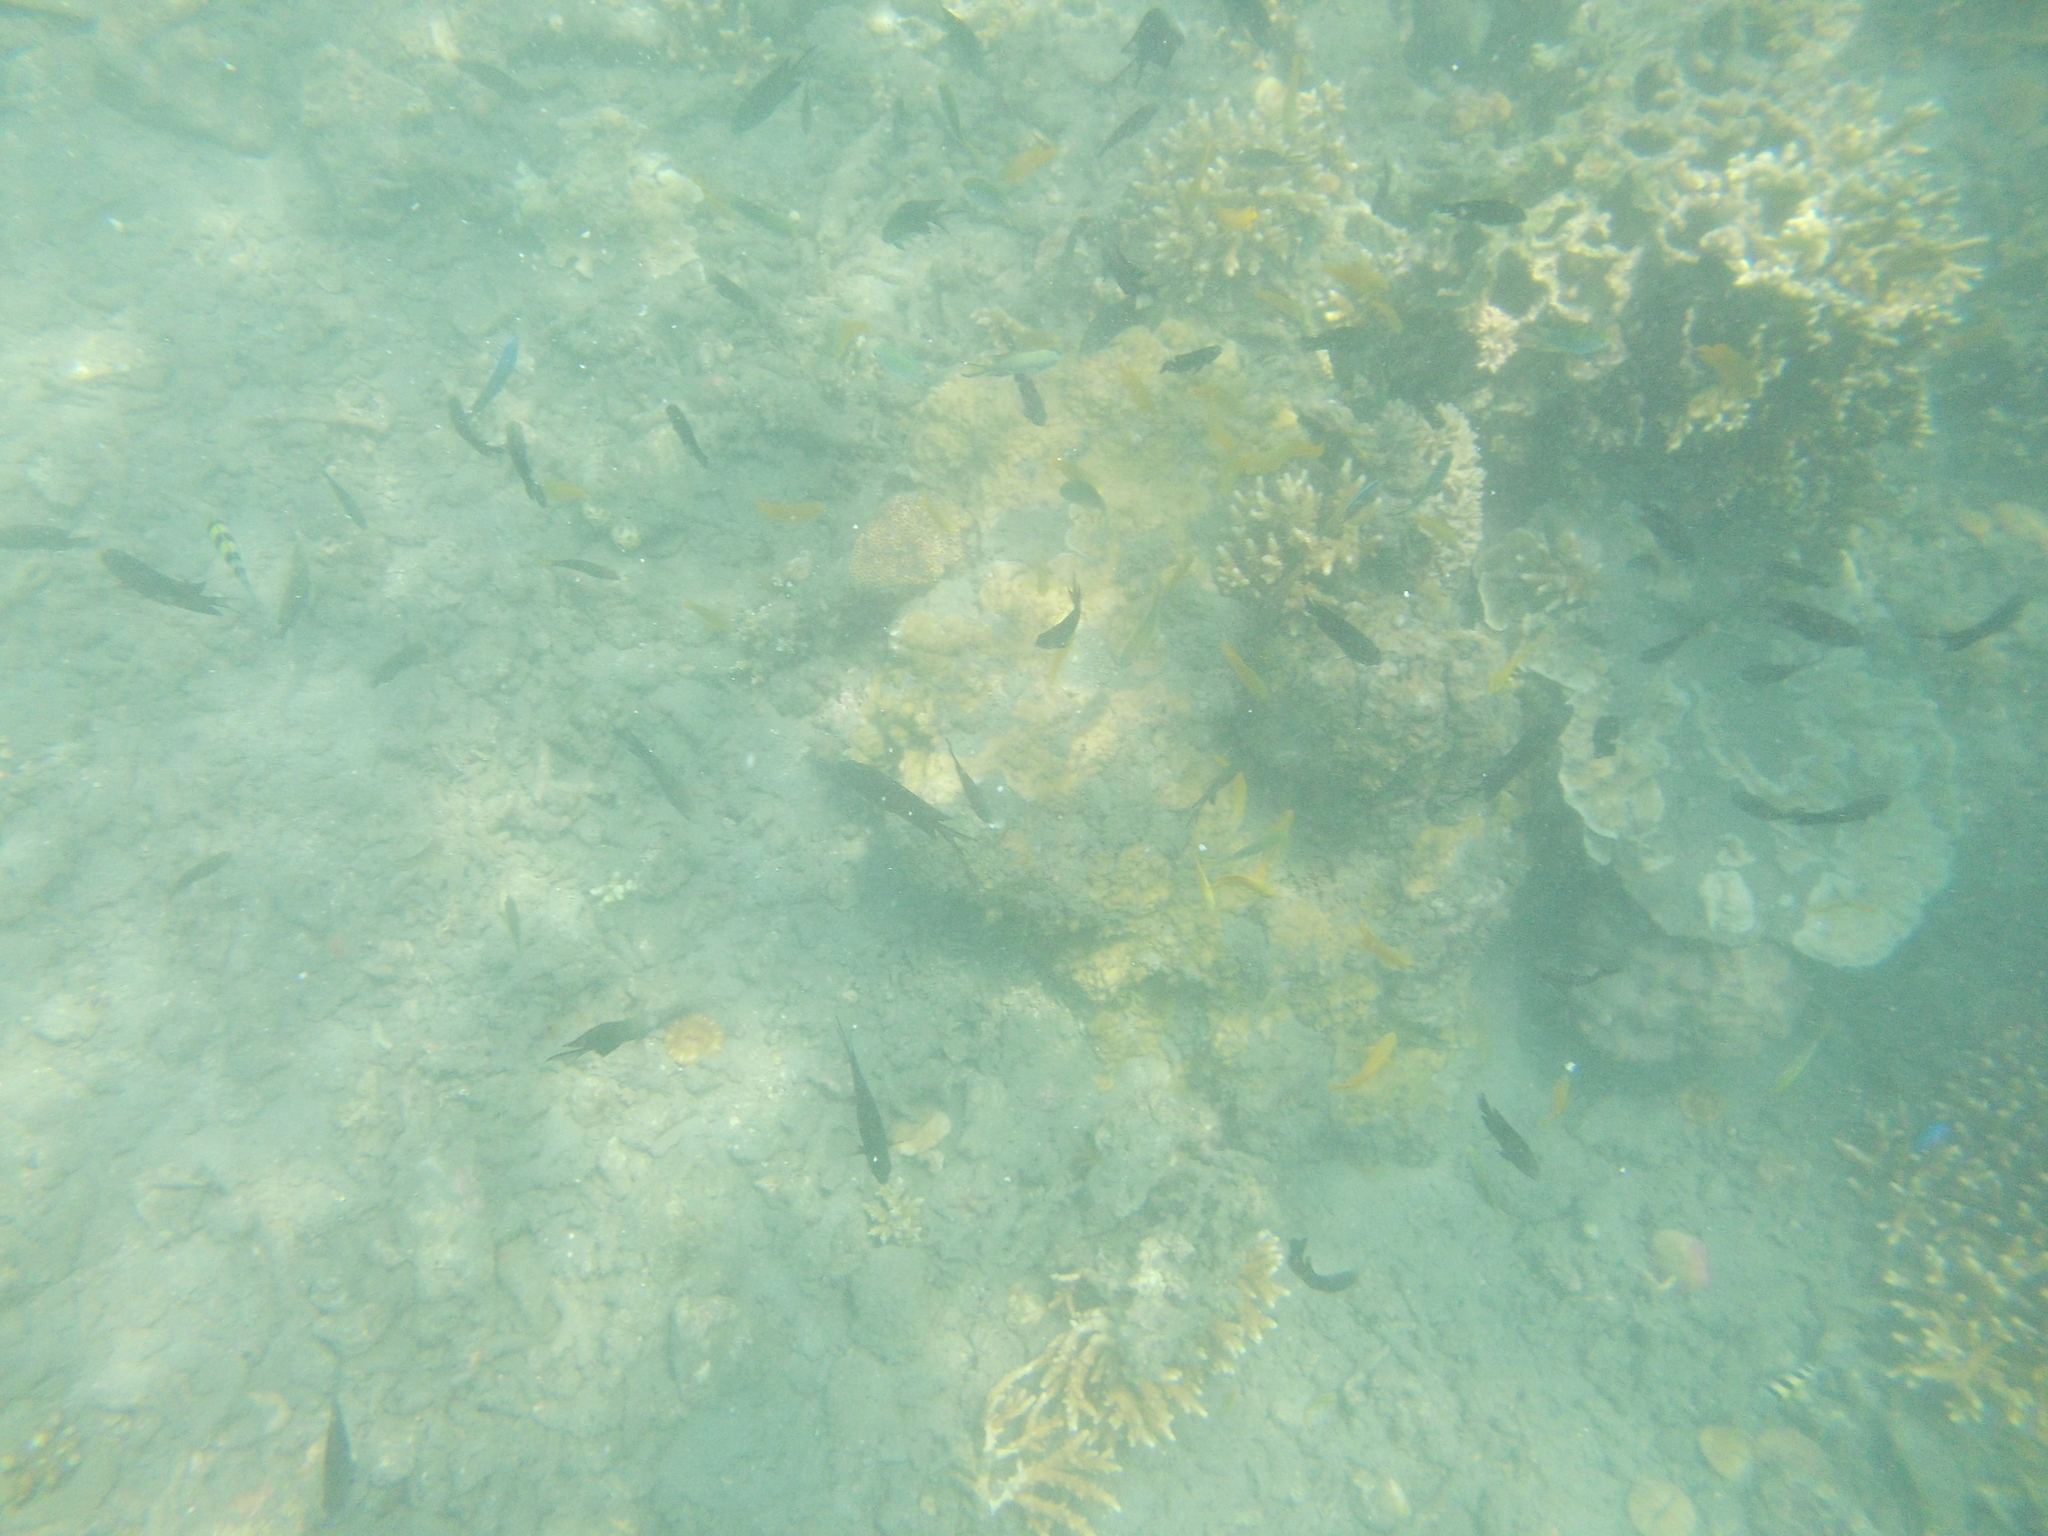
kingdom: Animalia
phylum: Cnidaria
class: Hydrozoa
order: Anthoathecata
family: Milleporidae
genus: Millepora
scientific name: Millepora
